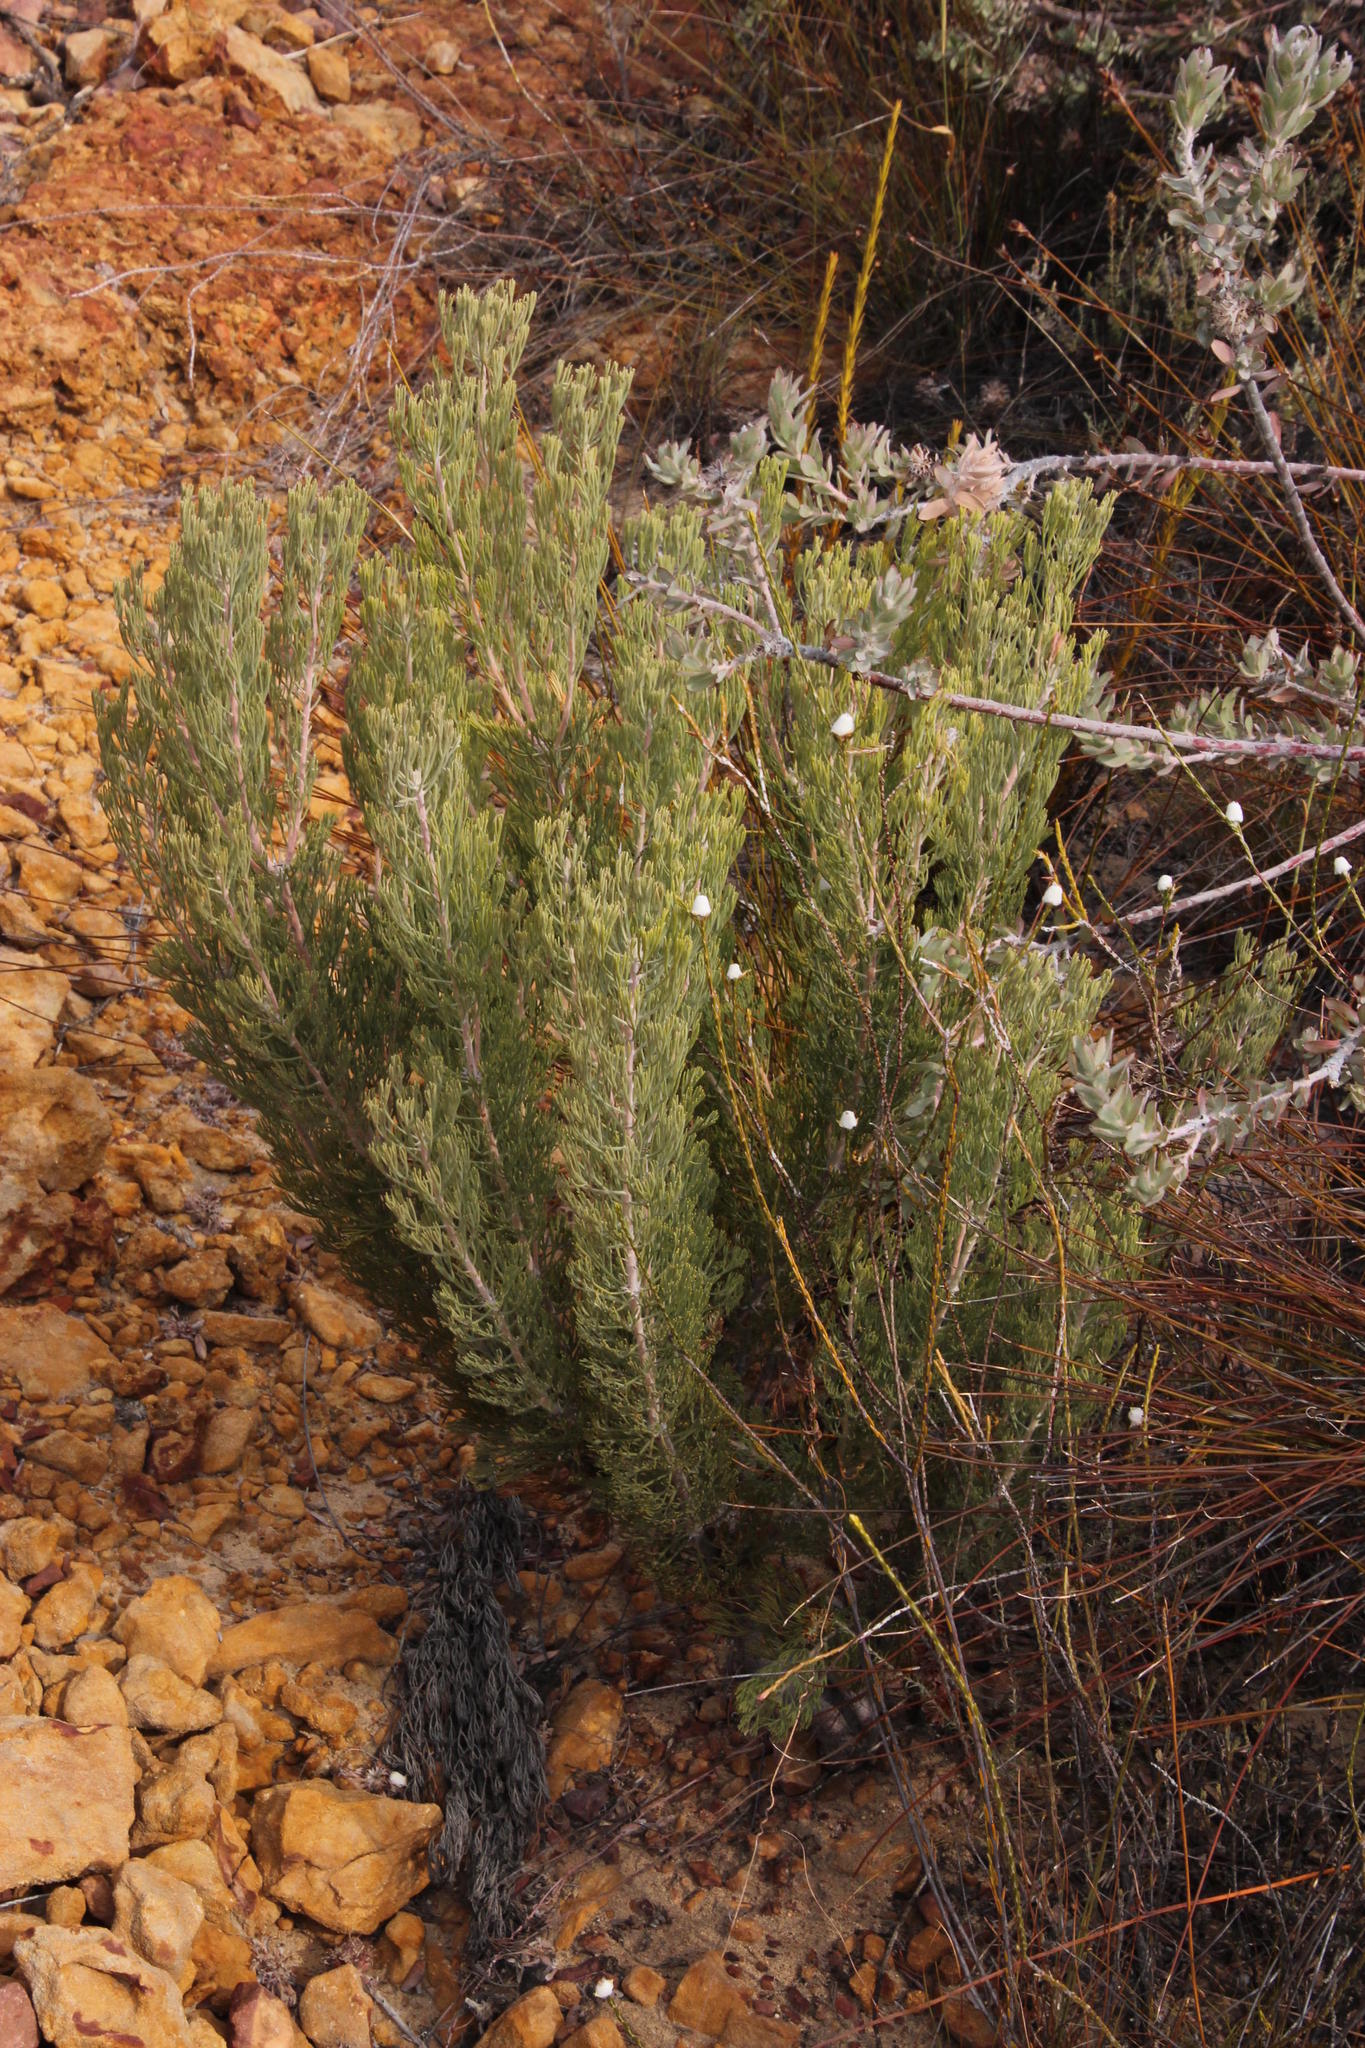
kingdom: Plantae
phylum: Tracheophyta
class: Magnoliopsida
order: Proteales
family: Proteaceae
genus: Paranomus
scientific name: Paranomus bracteolaris
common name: Bokkeveld tree sceptre
